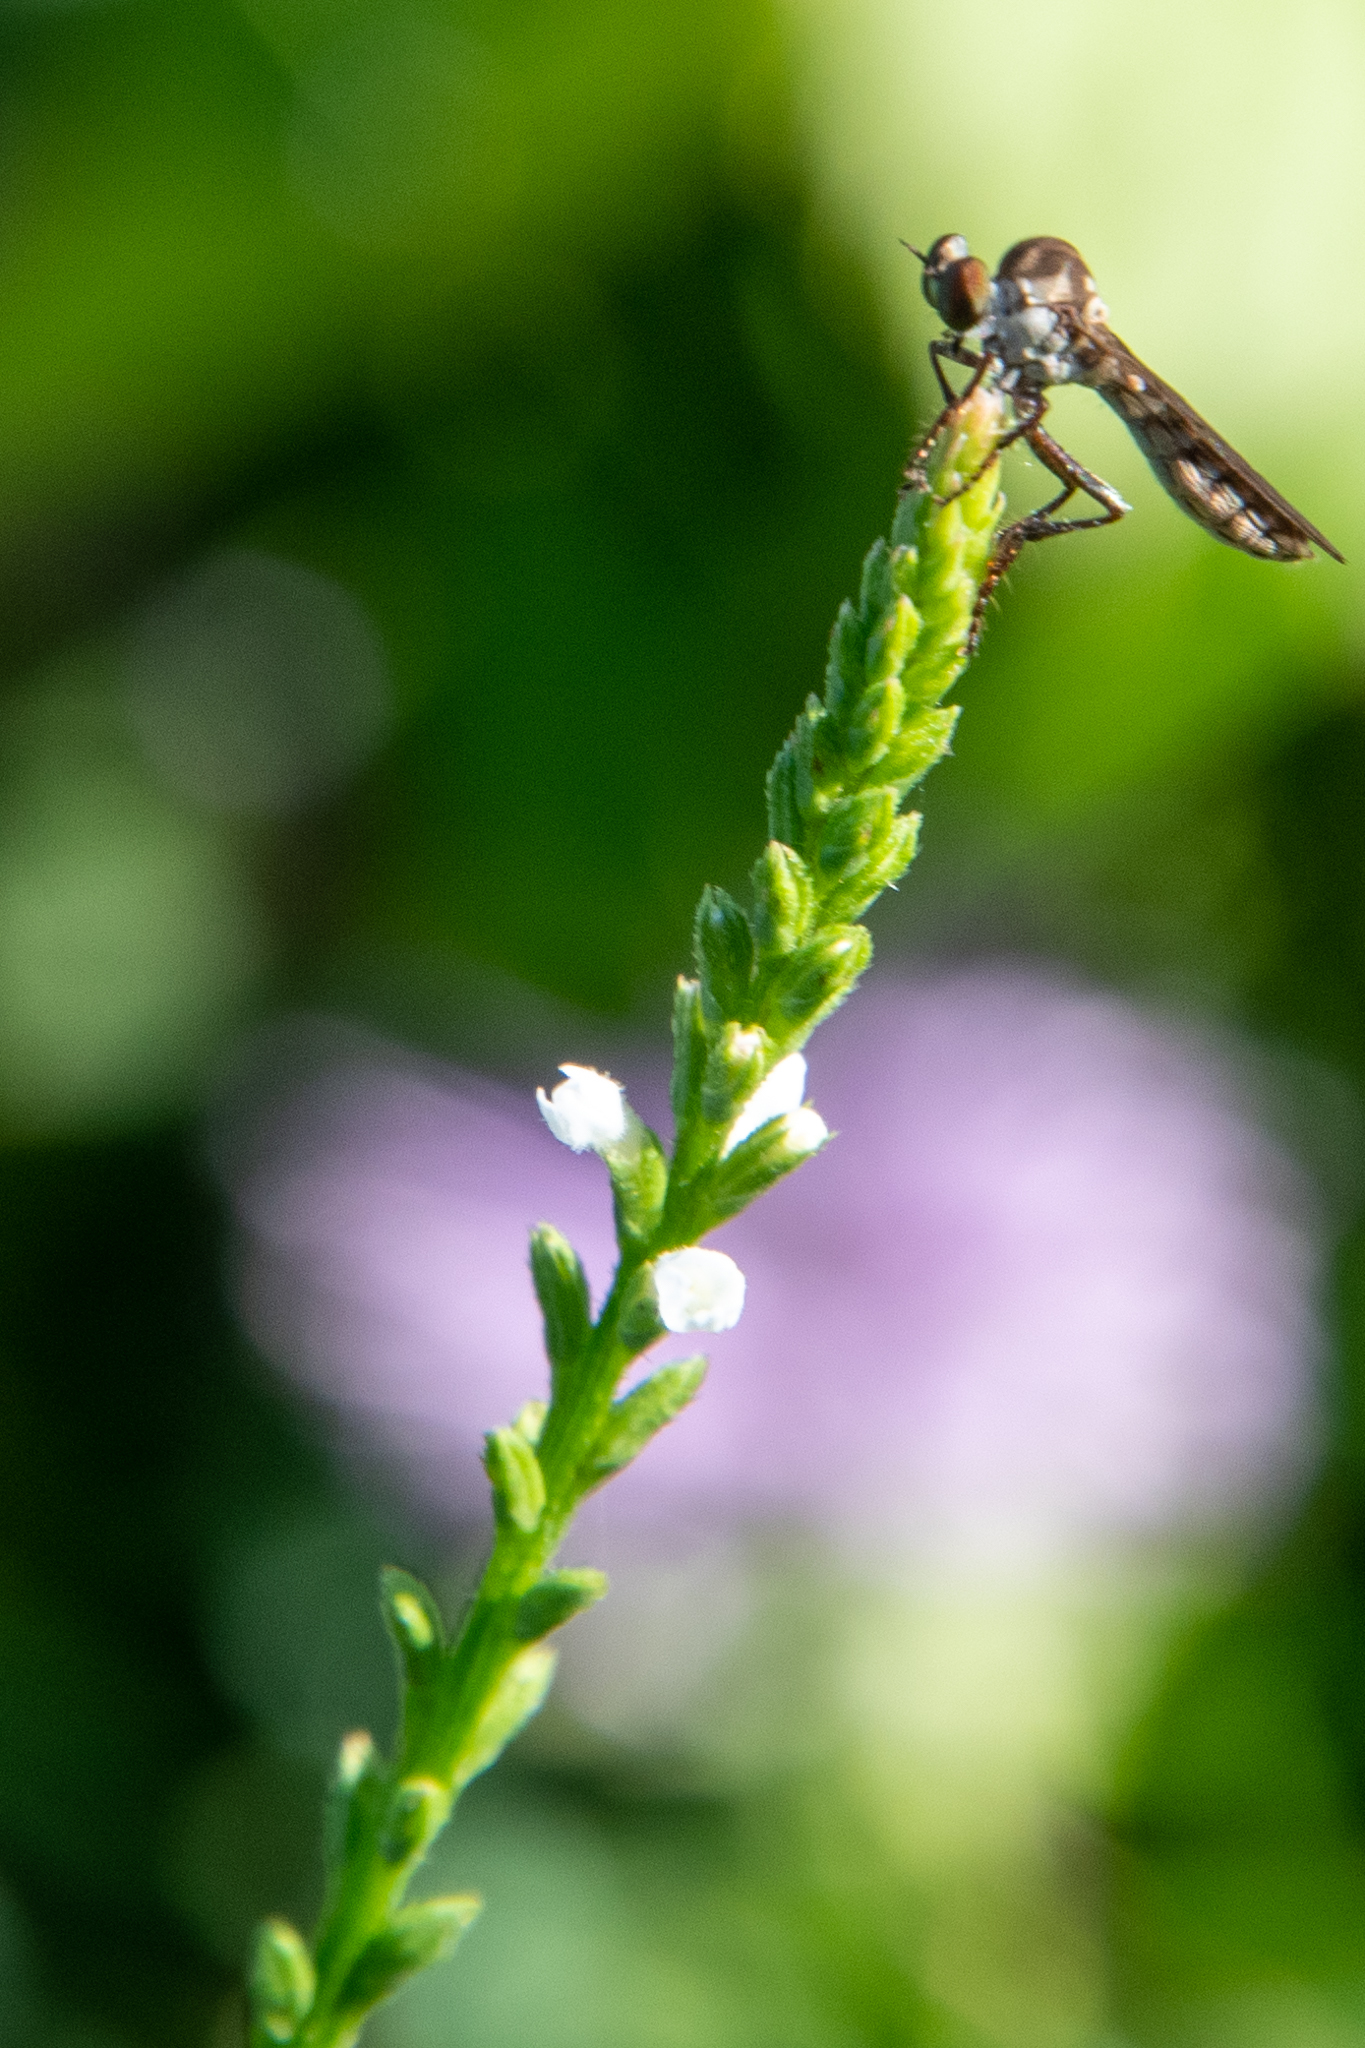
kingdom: Animalia
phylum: Arthropoda
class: Insecta
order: Diptera
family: Asilidae
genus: Holcocephala
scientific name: Holcocephala calva
